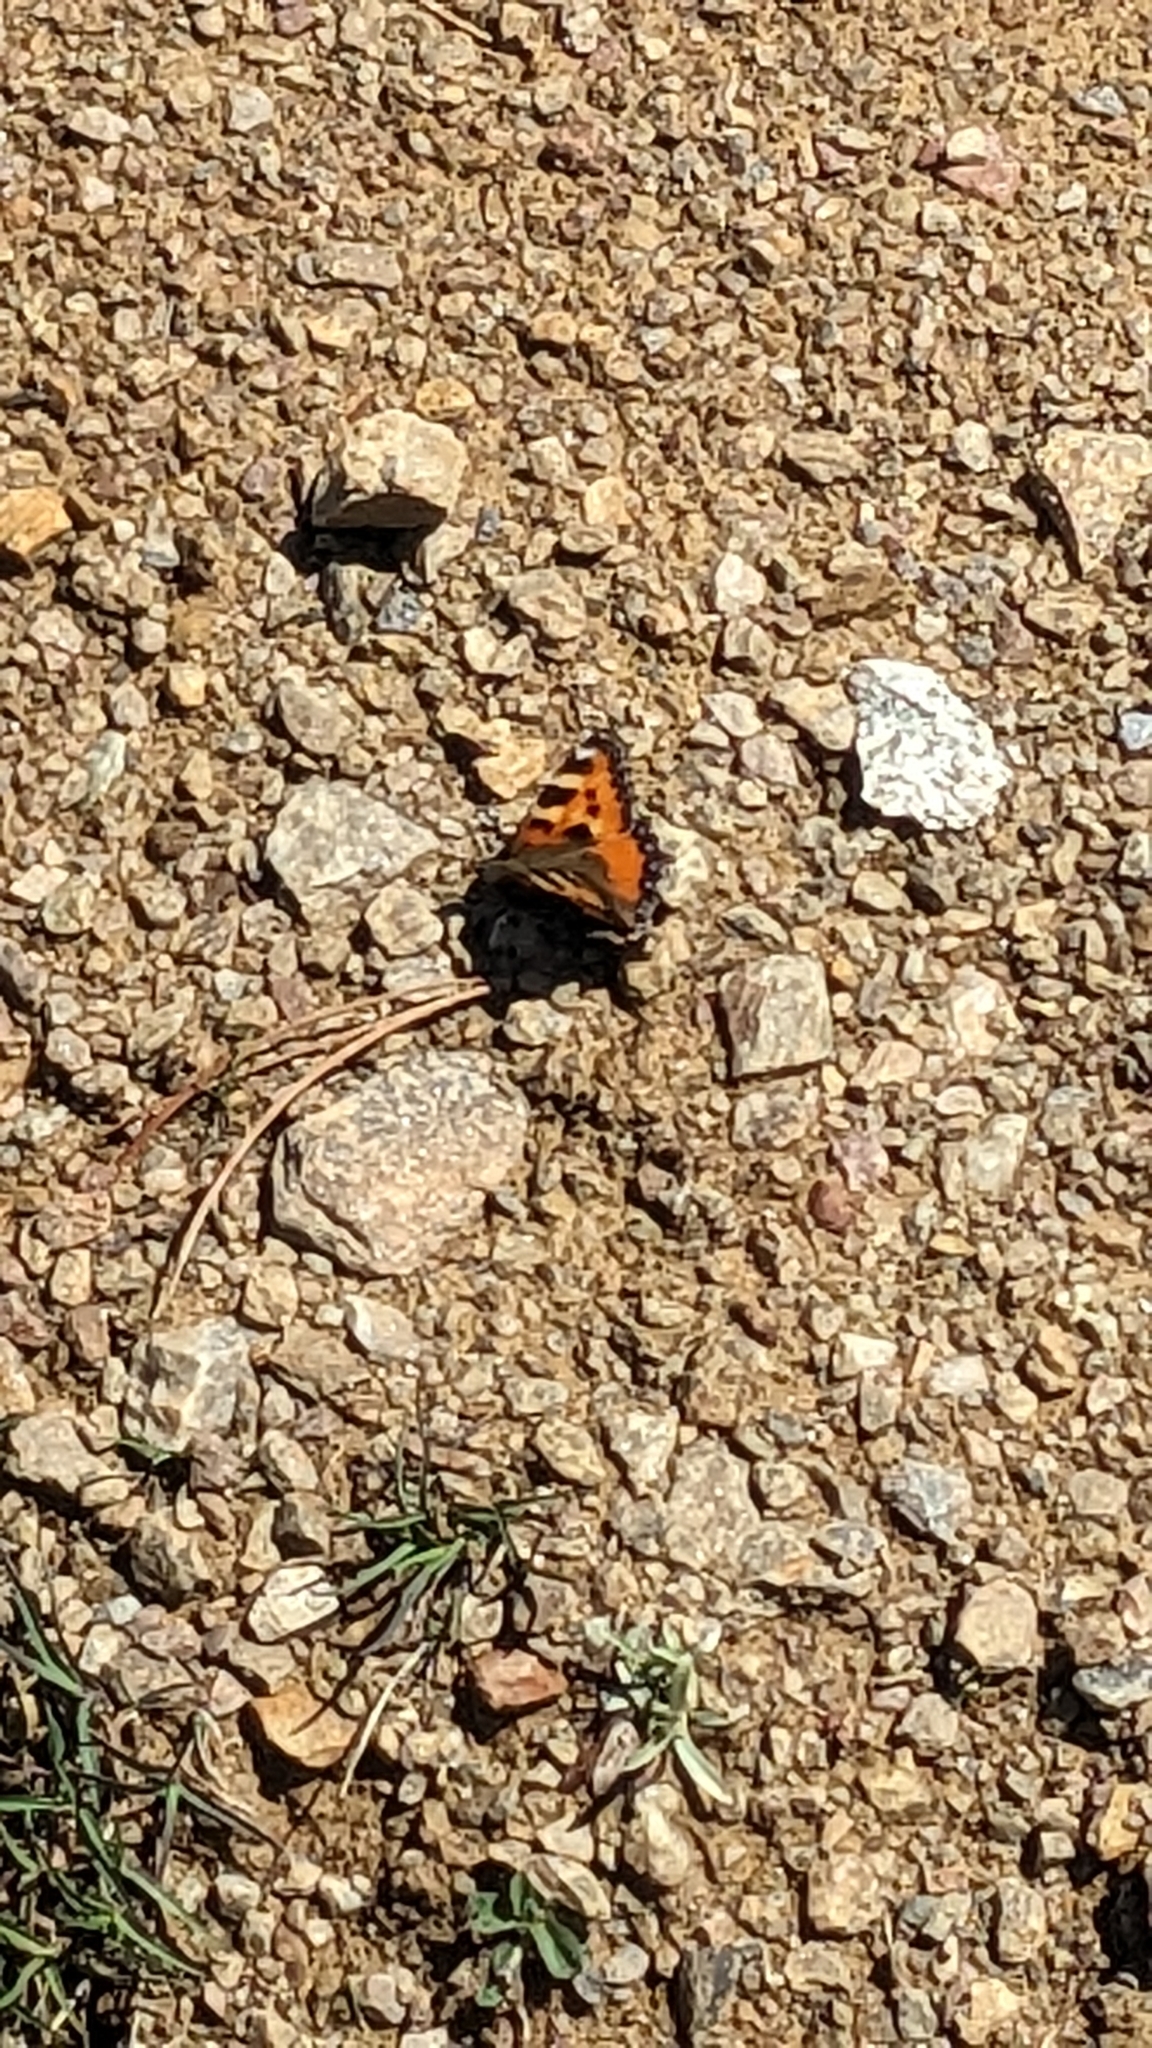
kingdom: Animalia
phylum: Arthropoda
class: Insecta
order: Lepidoptera
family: Nymphalidae
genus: Aglais
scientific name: Aglais urticae
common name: Small tortoiseshell
